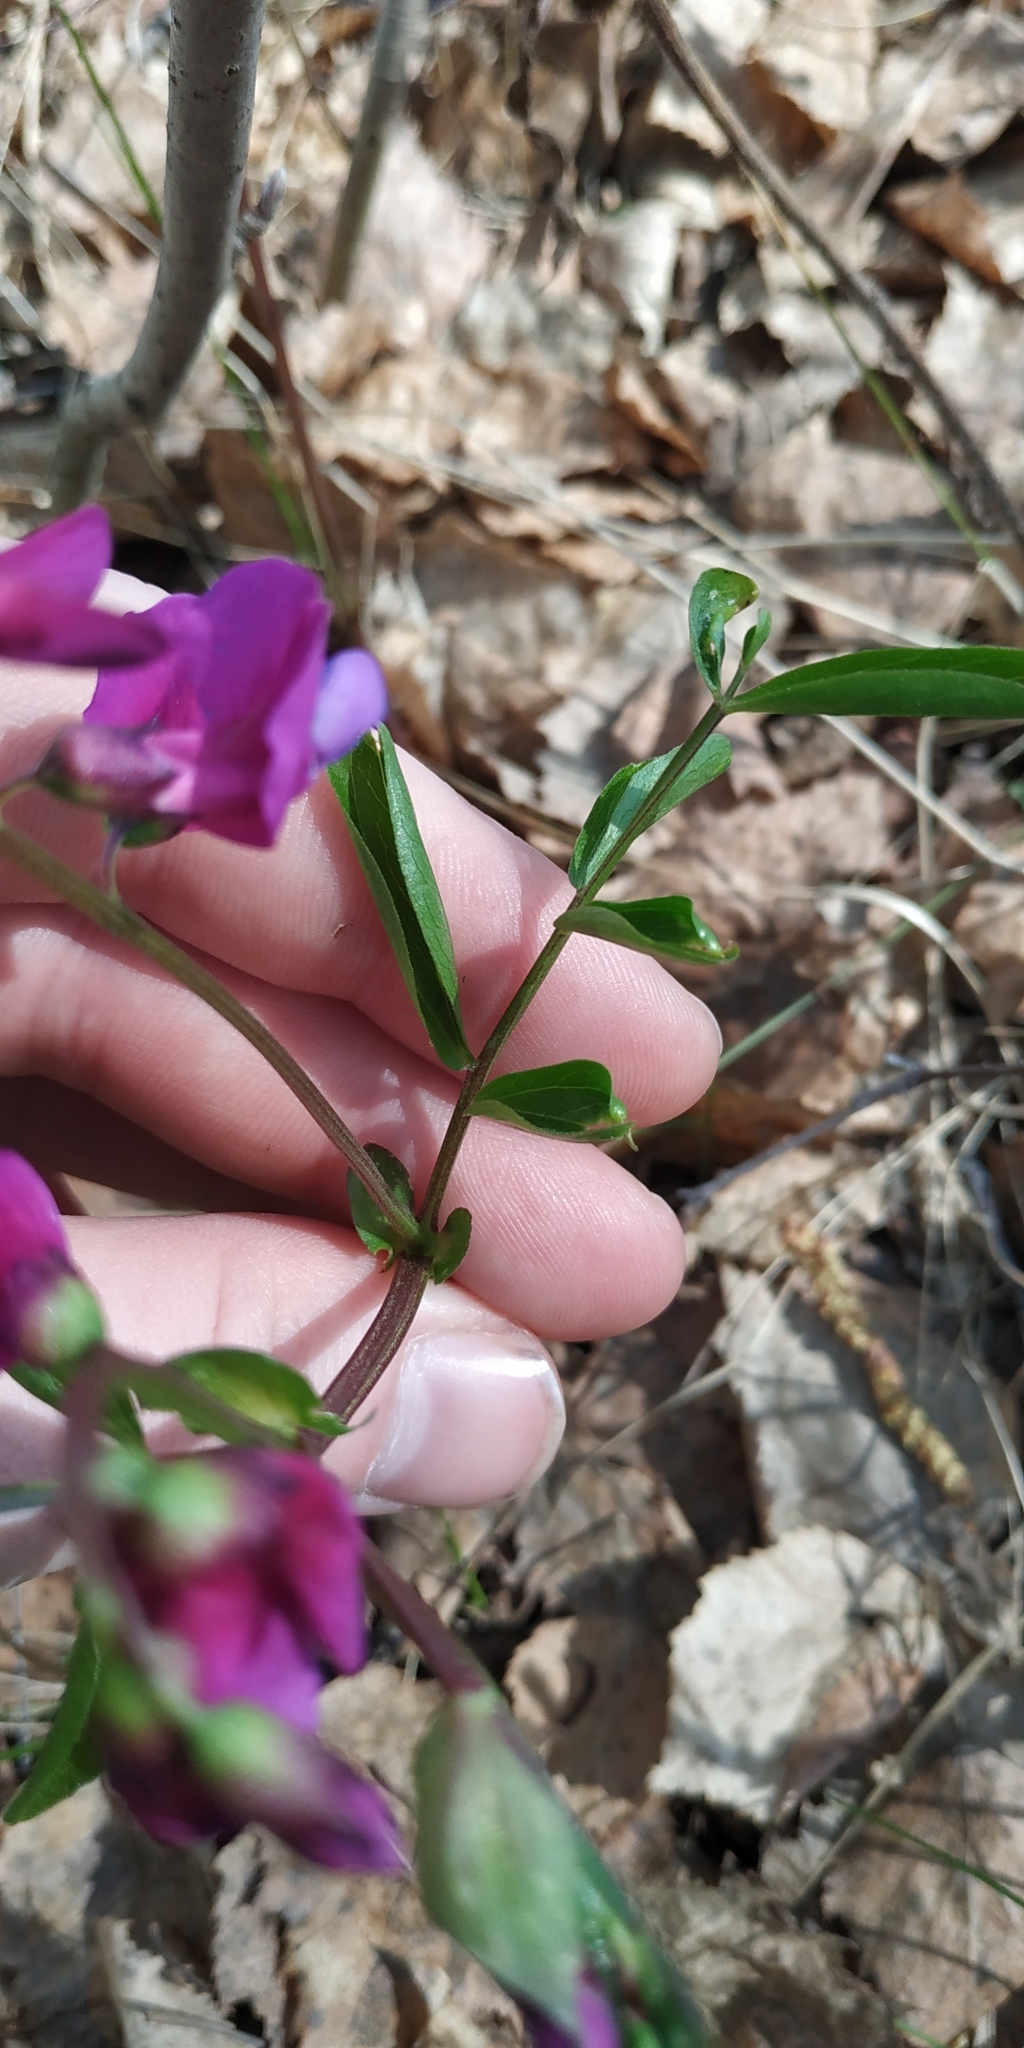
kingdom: Plantae
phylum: Tracheophyta
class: Magnoliopsida
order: Fabales
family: Fabaceae
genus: Lathyrus
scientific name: Lathyrus vernus
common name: Spring pea
